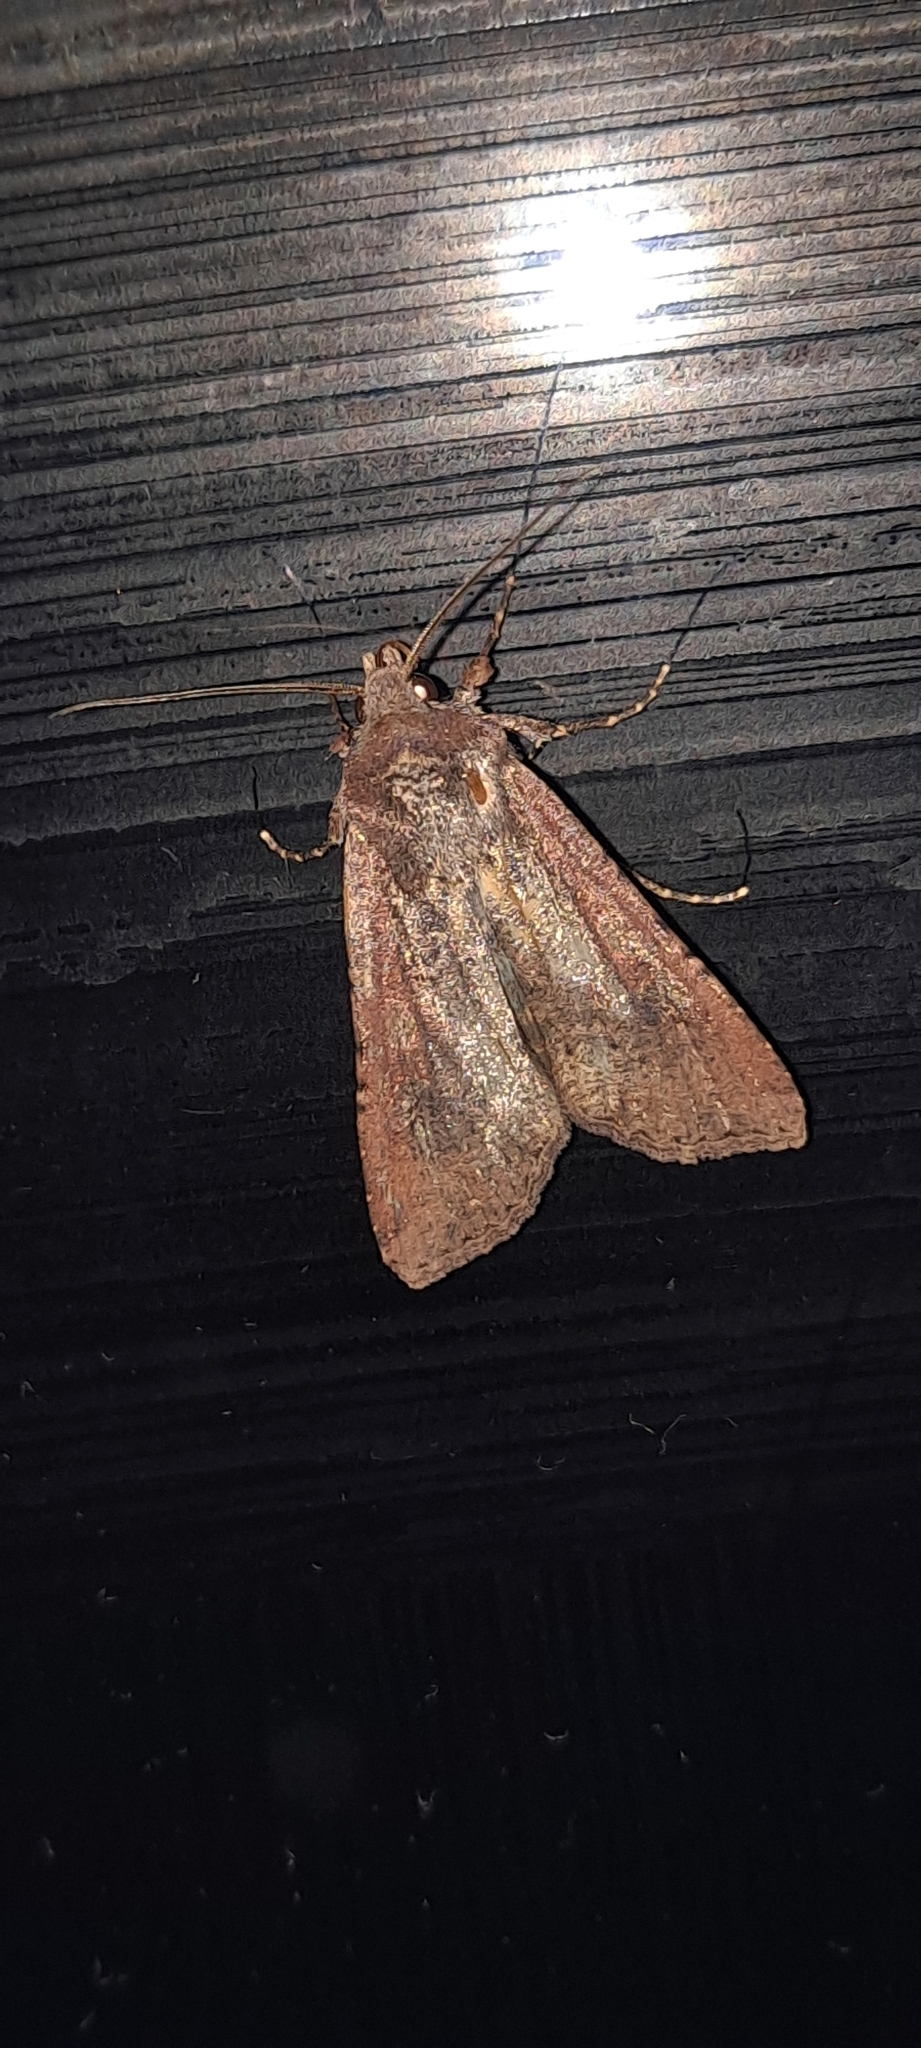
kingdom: Animalia
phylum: Arthropoda
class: Insecta
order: Lepidoptera
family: Noctuidae
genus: Peridroma
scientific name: Peridroma saucia
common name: Pearly underwing
